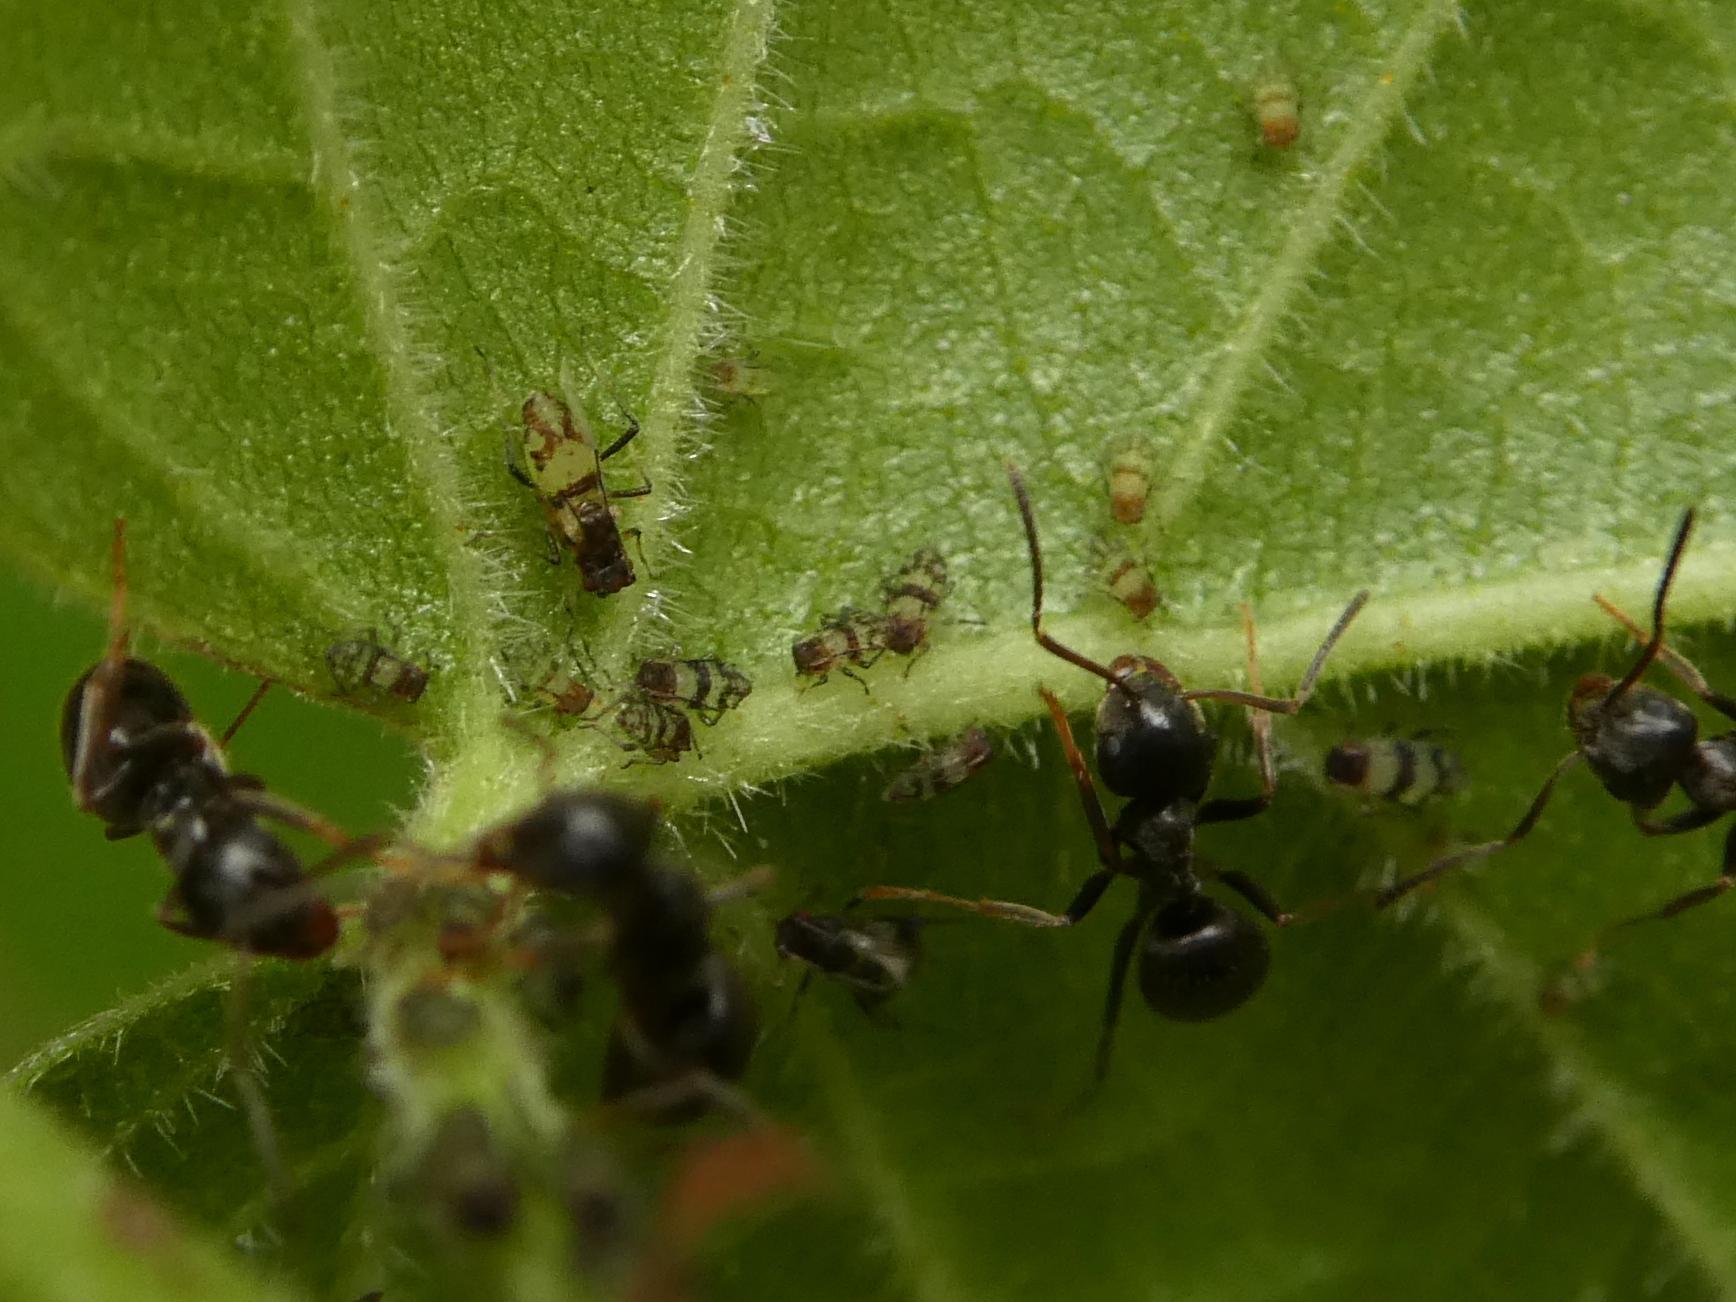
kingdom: Animalia
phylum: Arthropoda
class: Insecta
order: Hemiptera
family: Aphididae
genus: Callipterinella
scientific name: Callipterinella tuberculata
